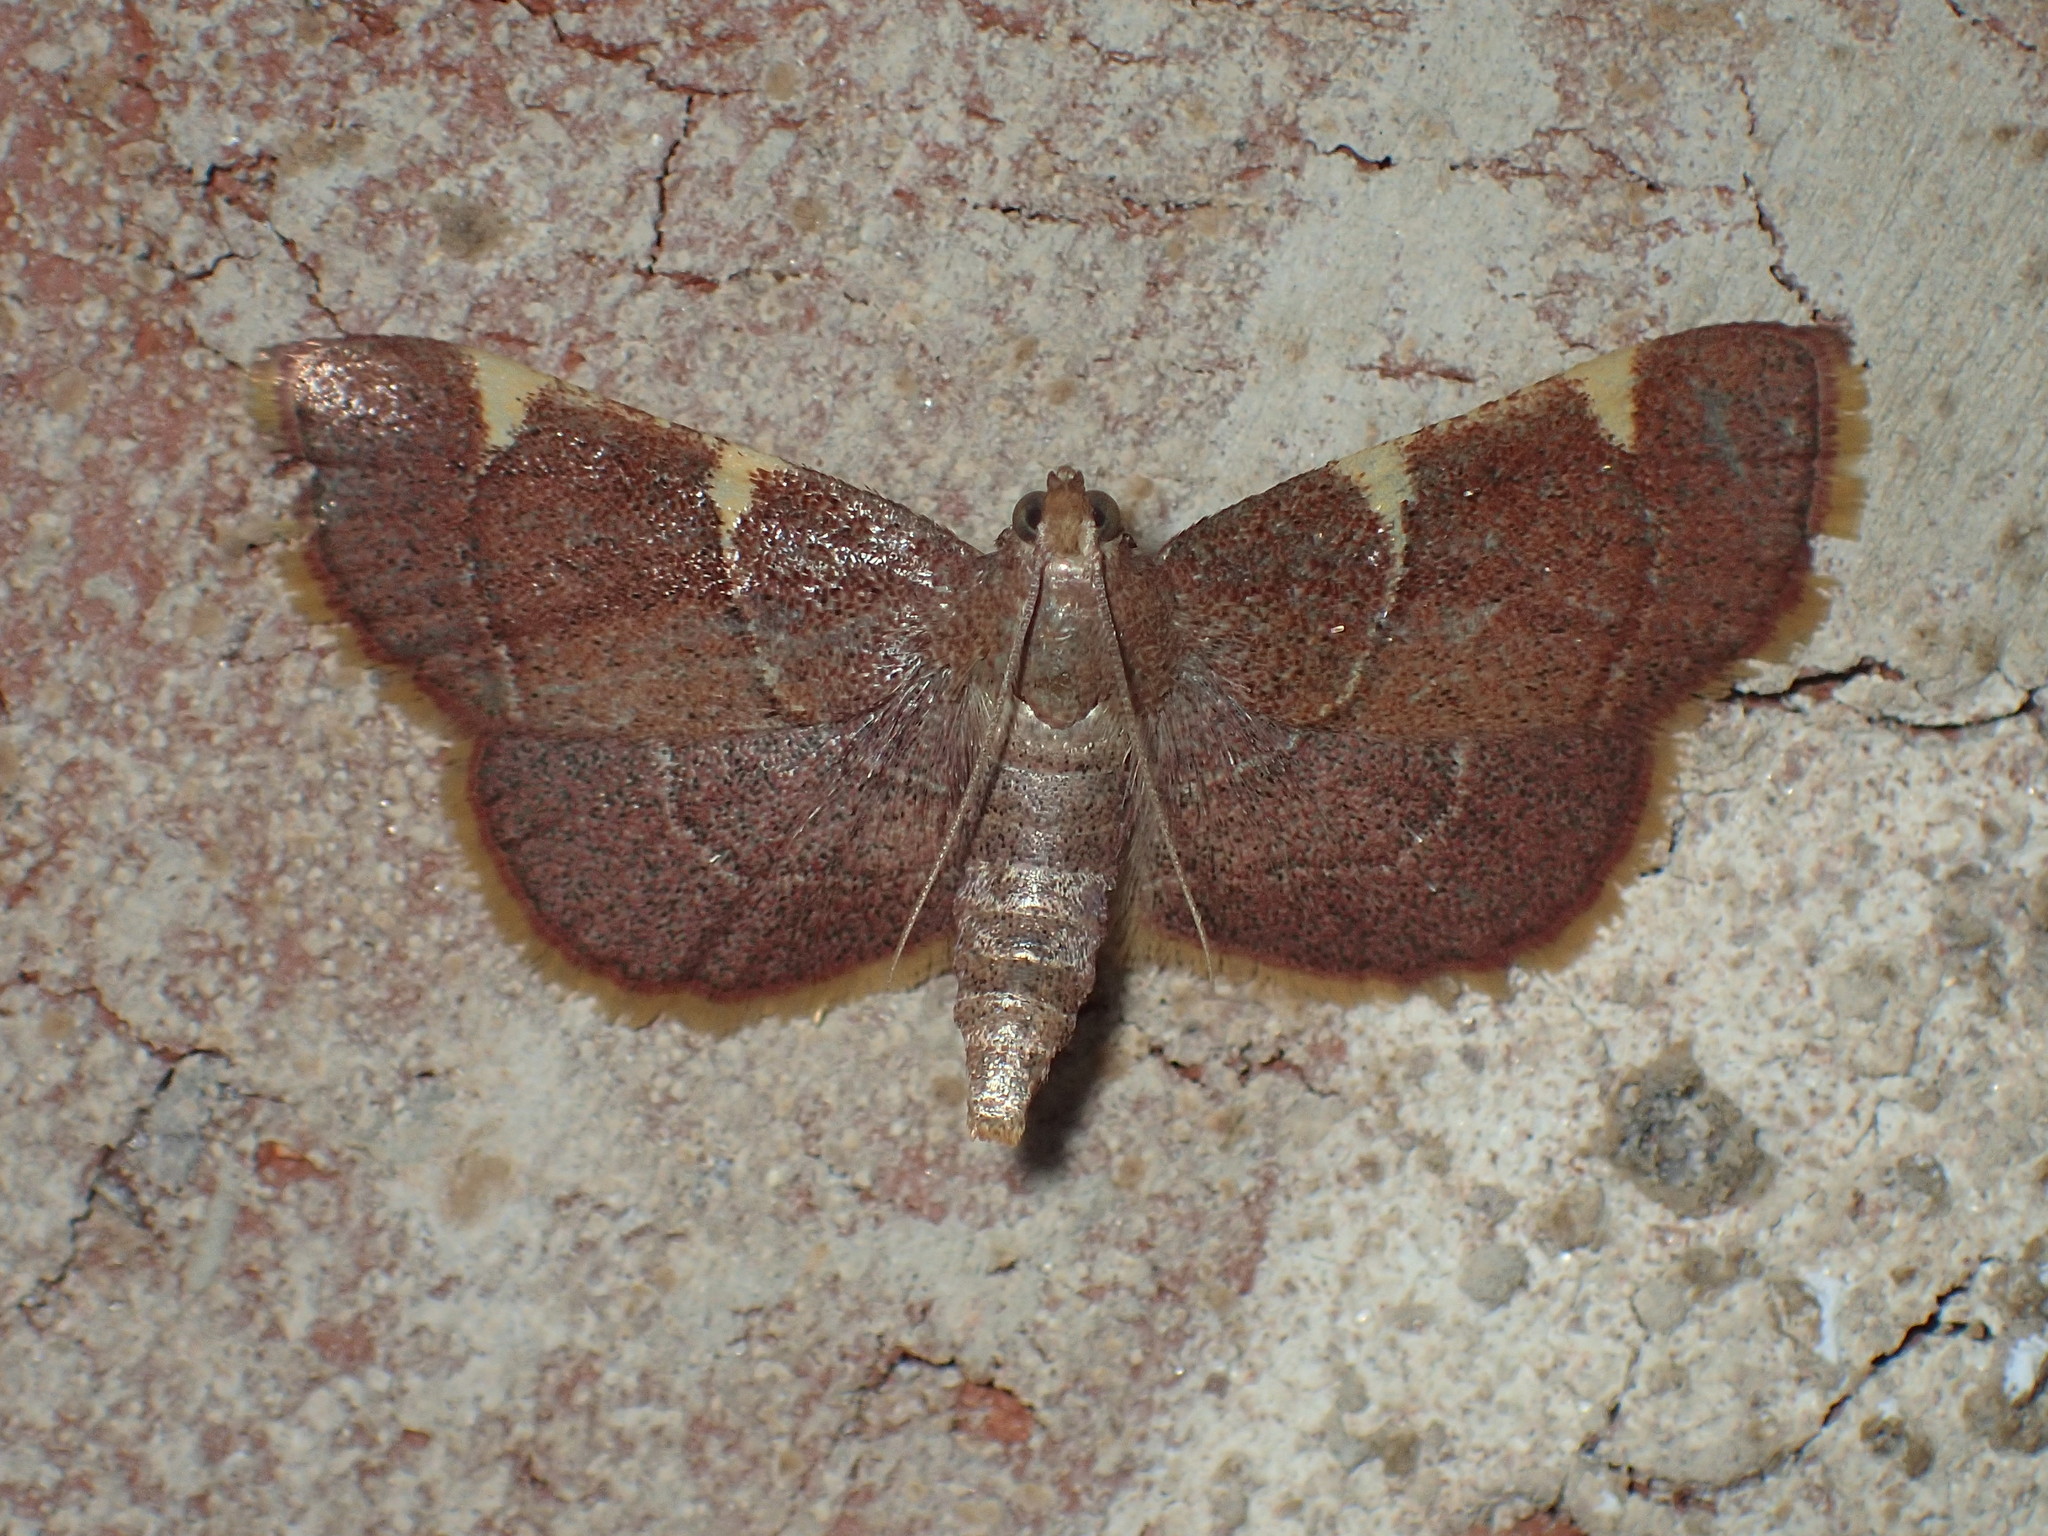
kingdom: Animalia
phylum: Arthropoda
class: Insecta
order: Lepidoptera
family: Pyralidae
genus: Hypsopygia
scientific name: Hypsopygia olinalis
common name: Yellow-fringed dolichomia moth
